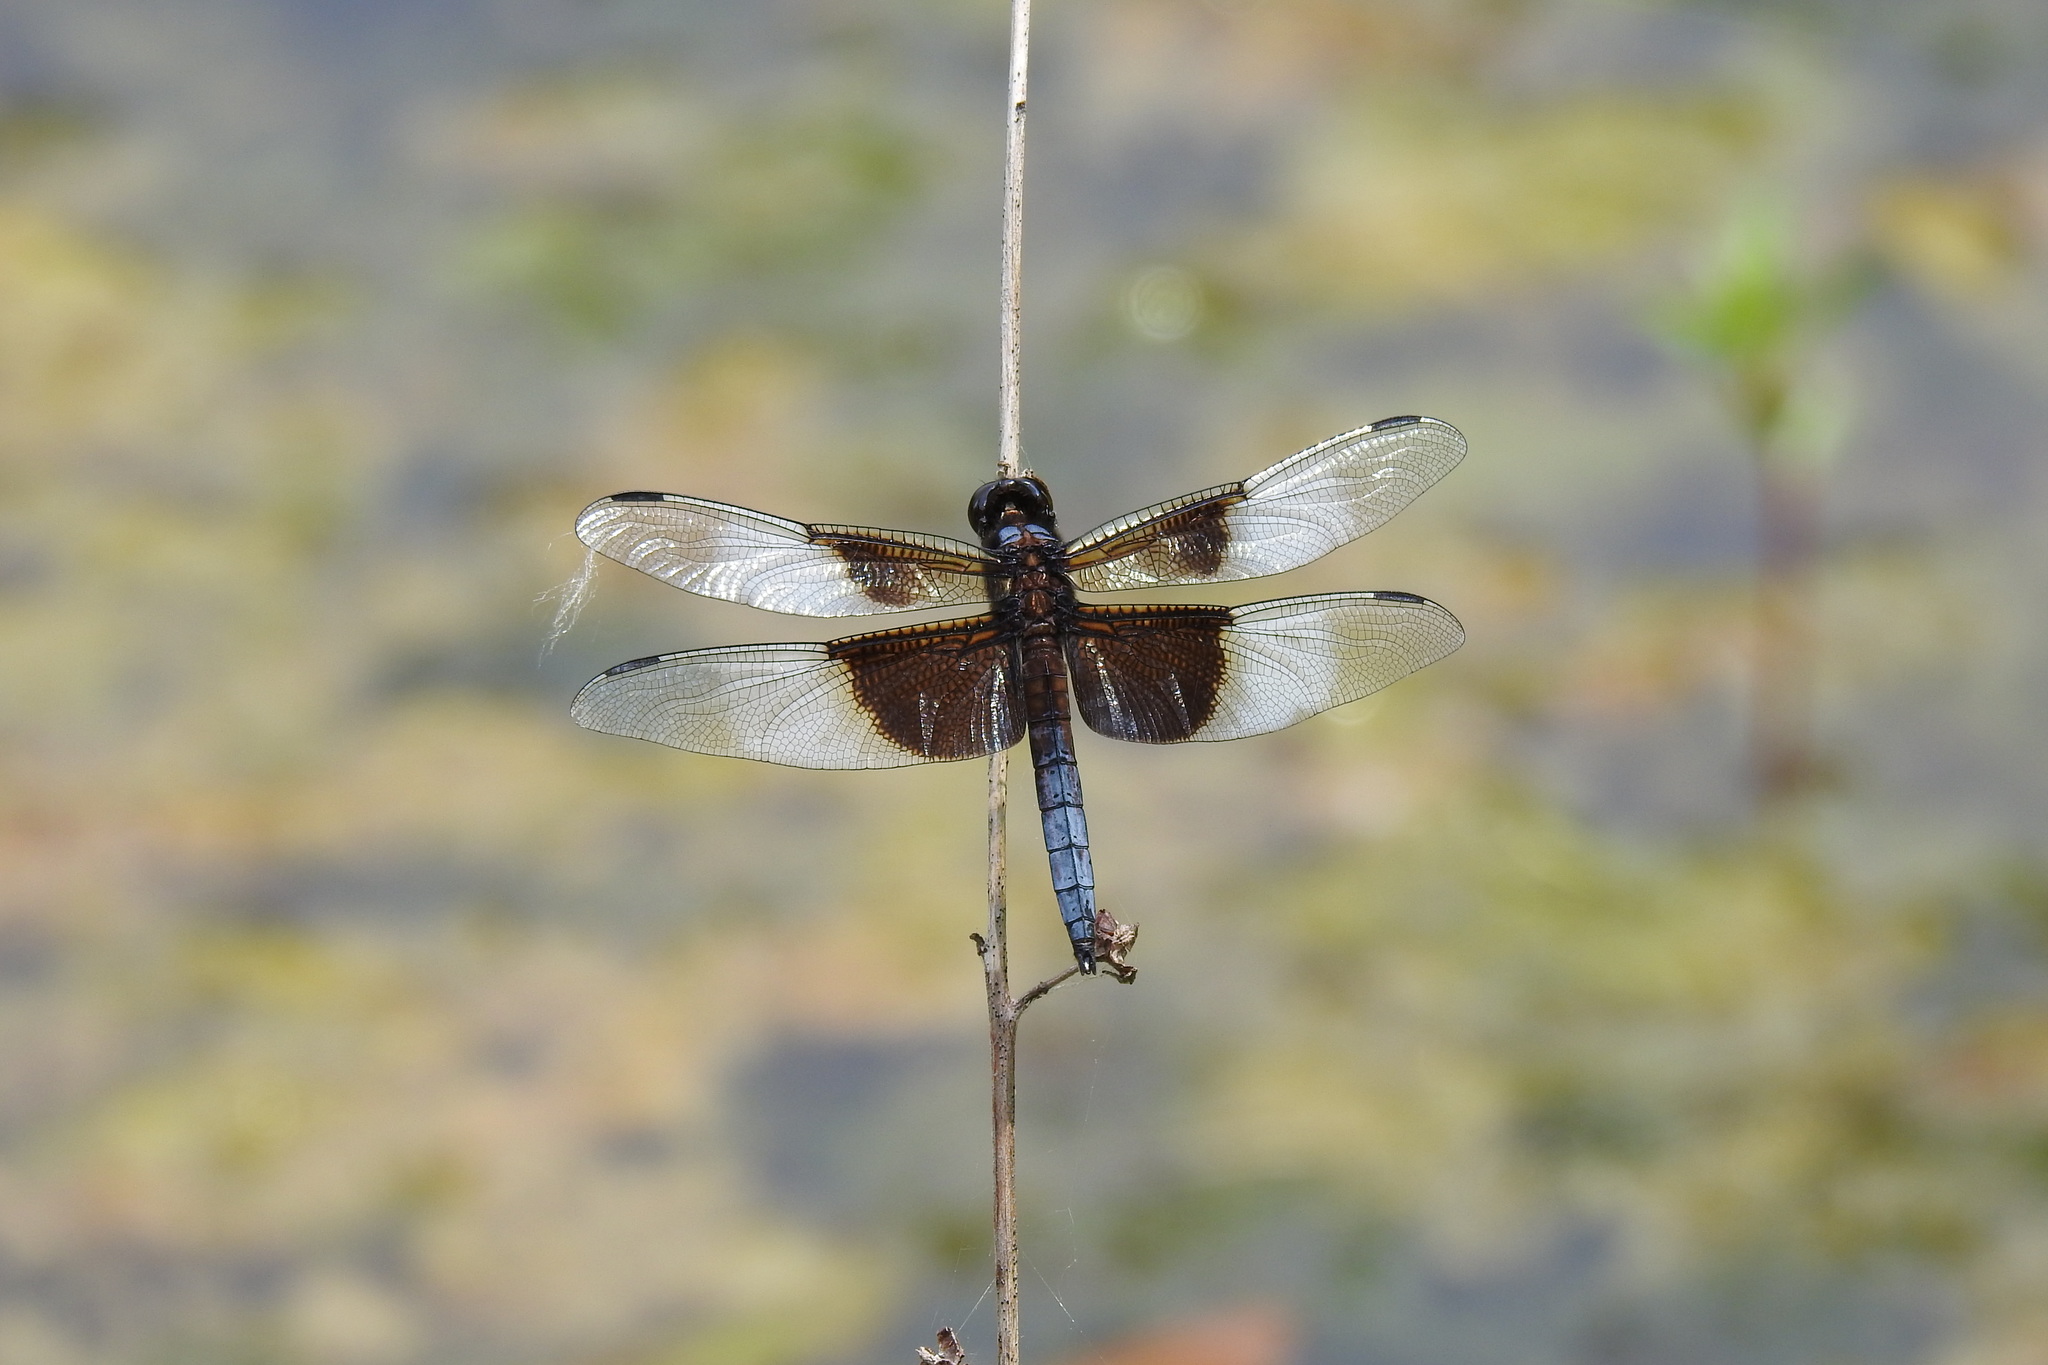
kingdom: Animalia
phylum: Arthropoda
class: Insecta
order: Odonata
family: Libellulidae
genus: Libellula
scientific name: Libellula luctuosa
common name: Widow skimmer
